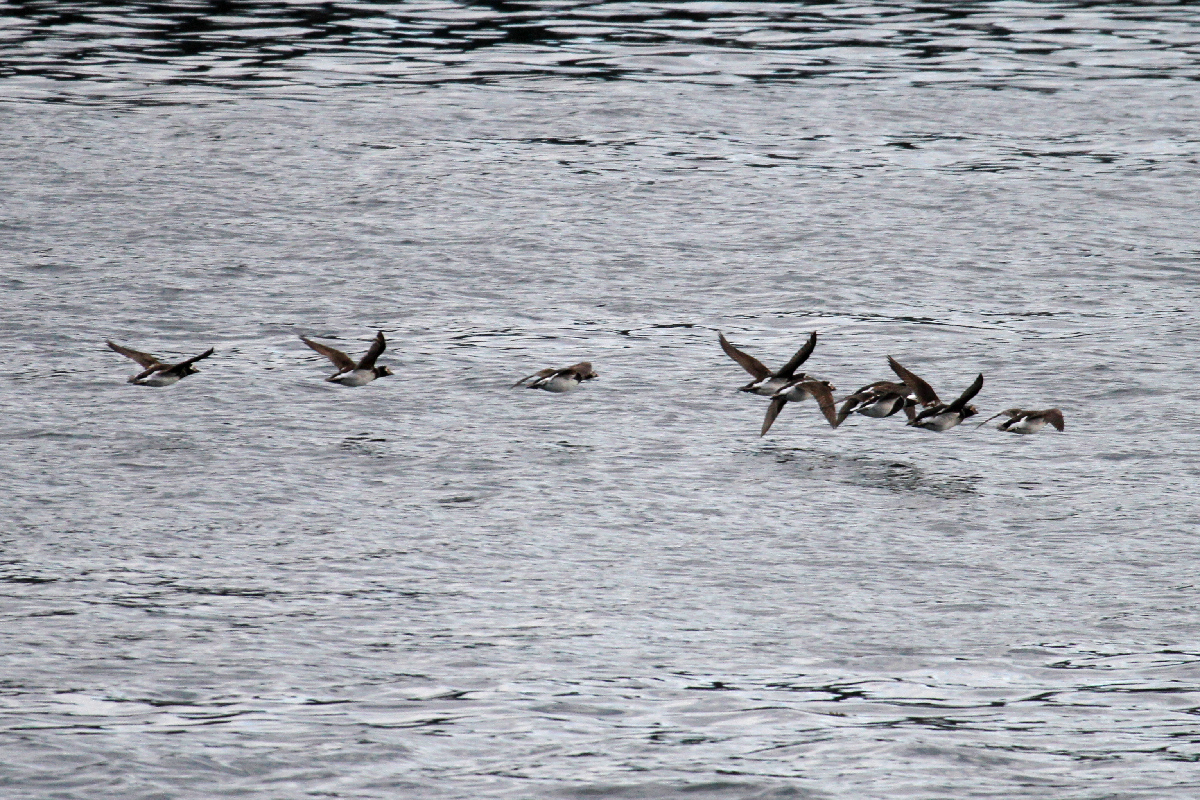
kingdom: Animalia
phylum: Chordata
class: Aves
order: Anseriformes
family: Anatidae
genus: Clangula
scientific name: Clangula hyemalis
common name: Long-tailed duck
